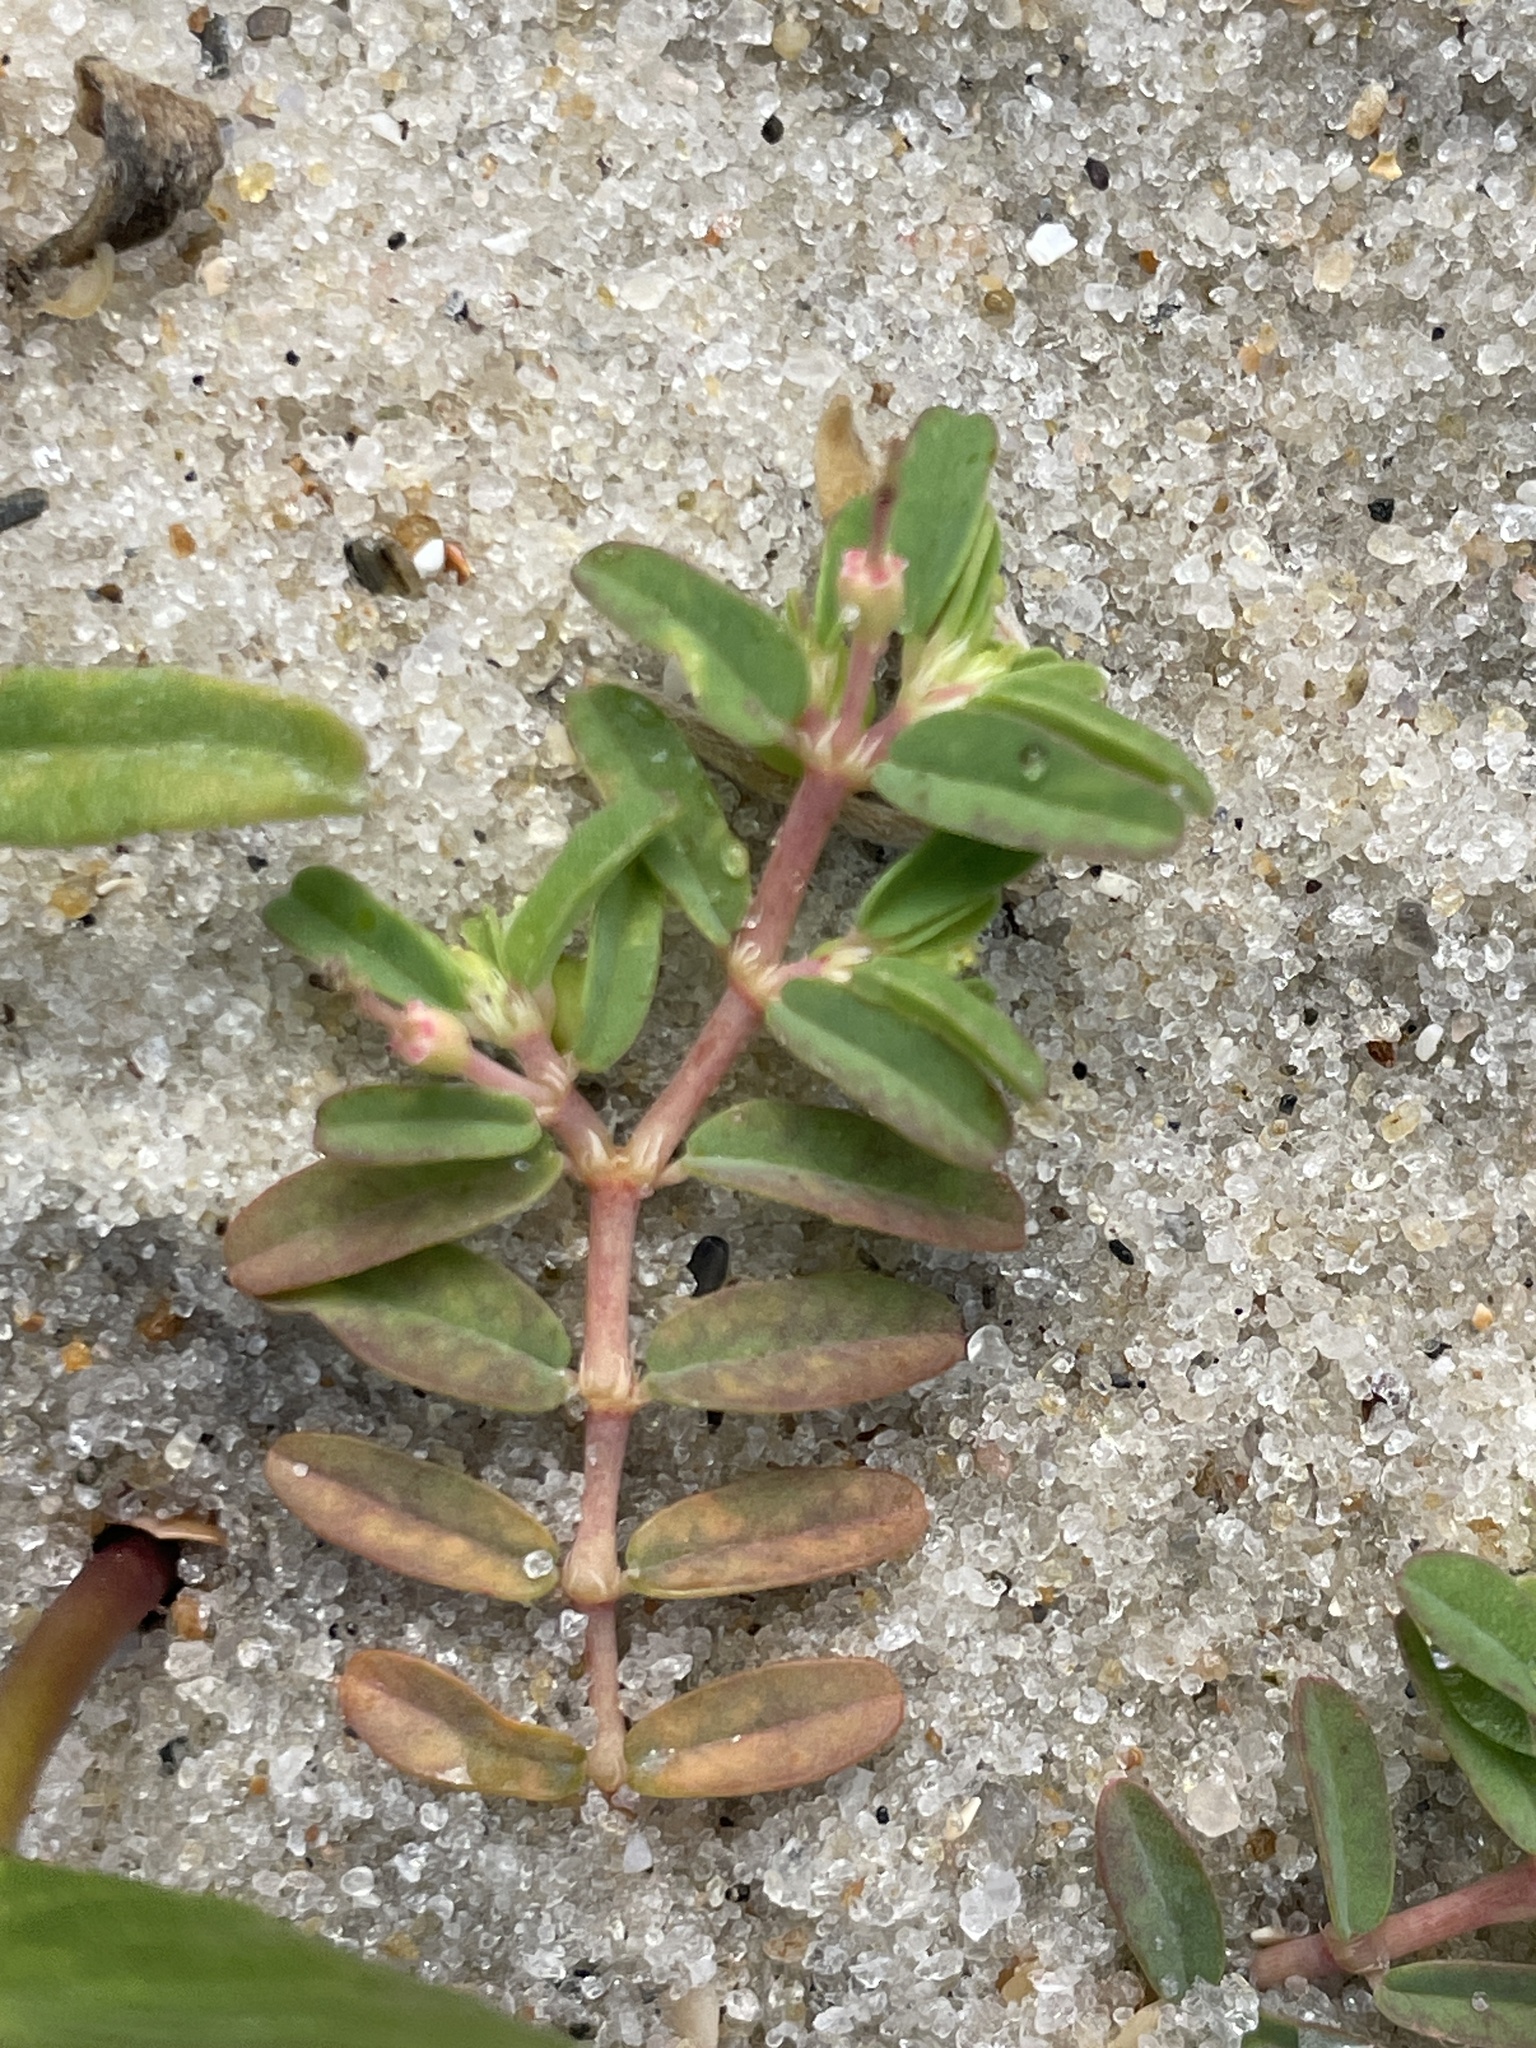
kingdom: Plantae
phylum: Tracheophyta
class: Magnoliopsida
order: Malpighiales
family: Euphorbiaceae
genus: Euphorbia
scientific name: Euphorbia bombensis
